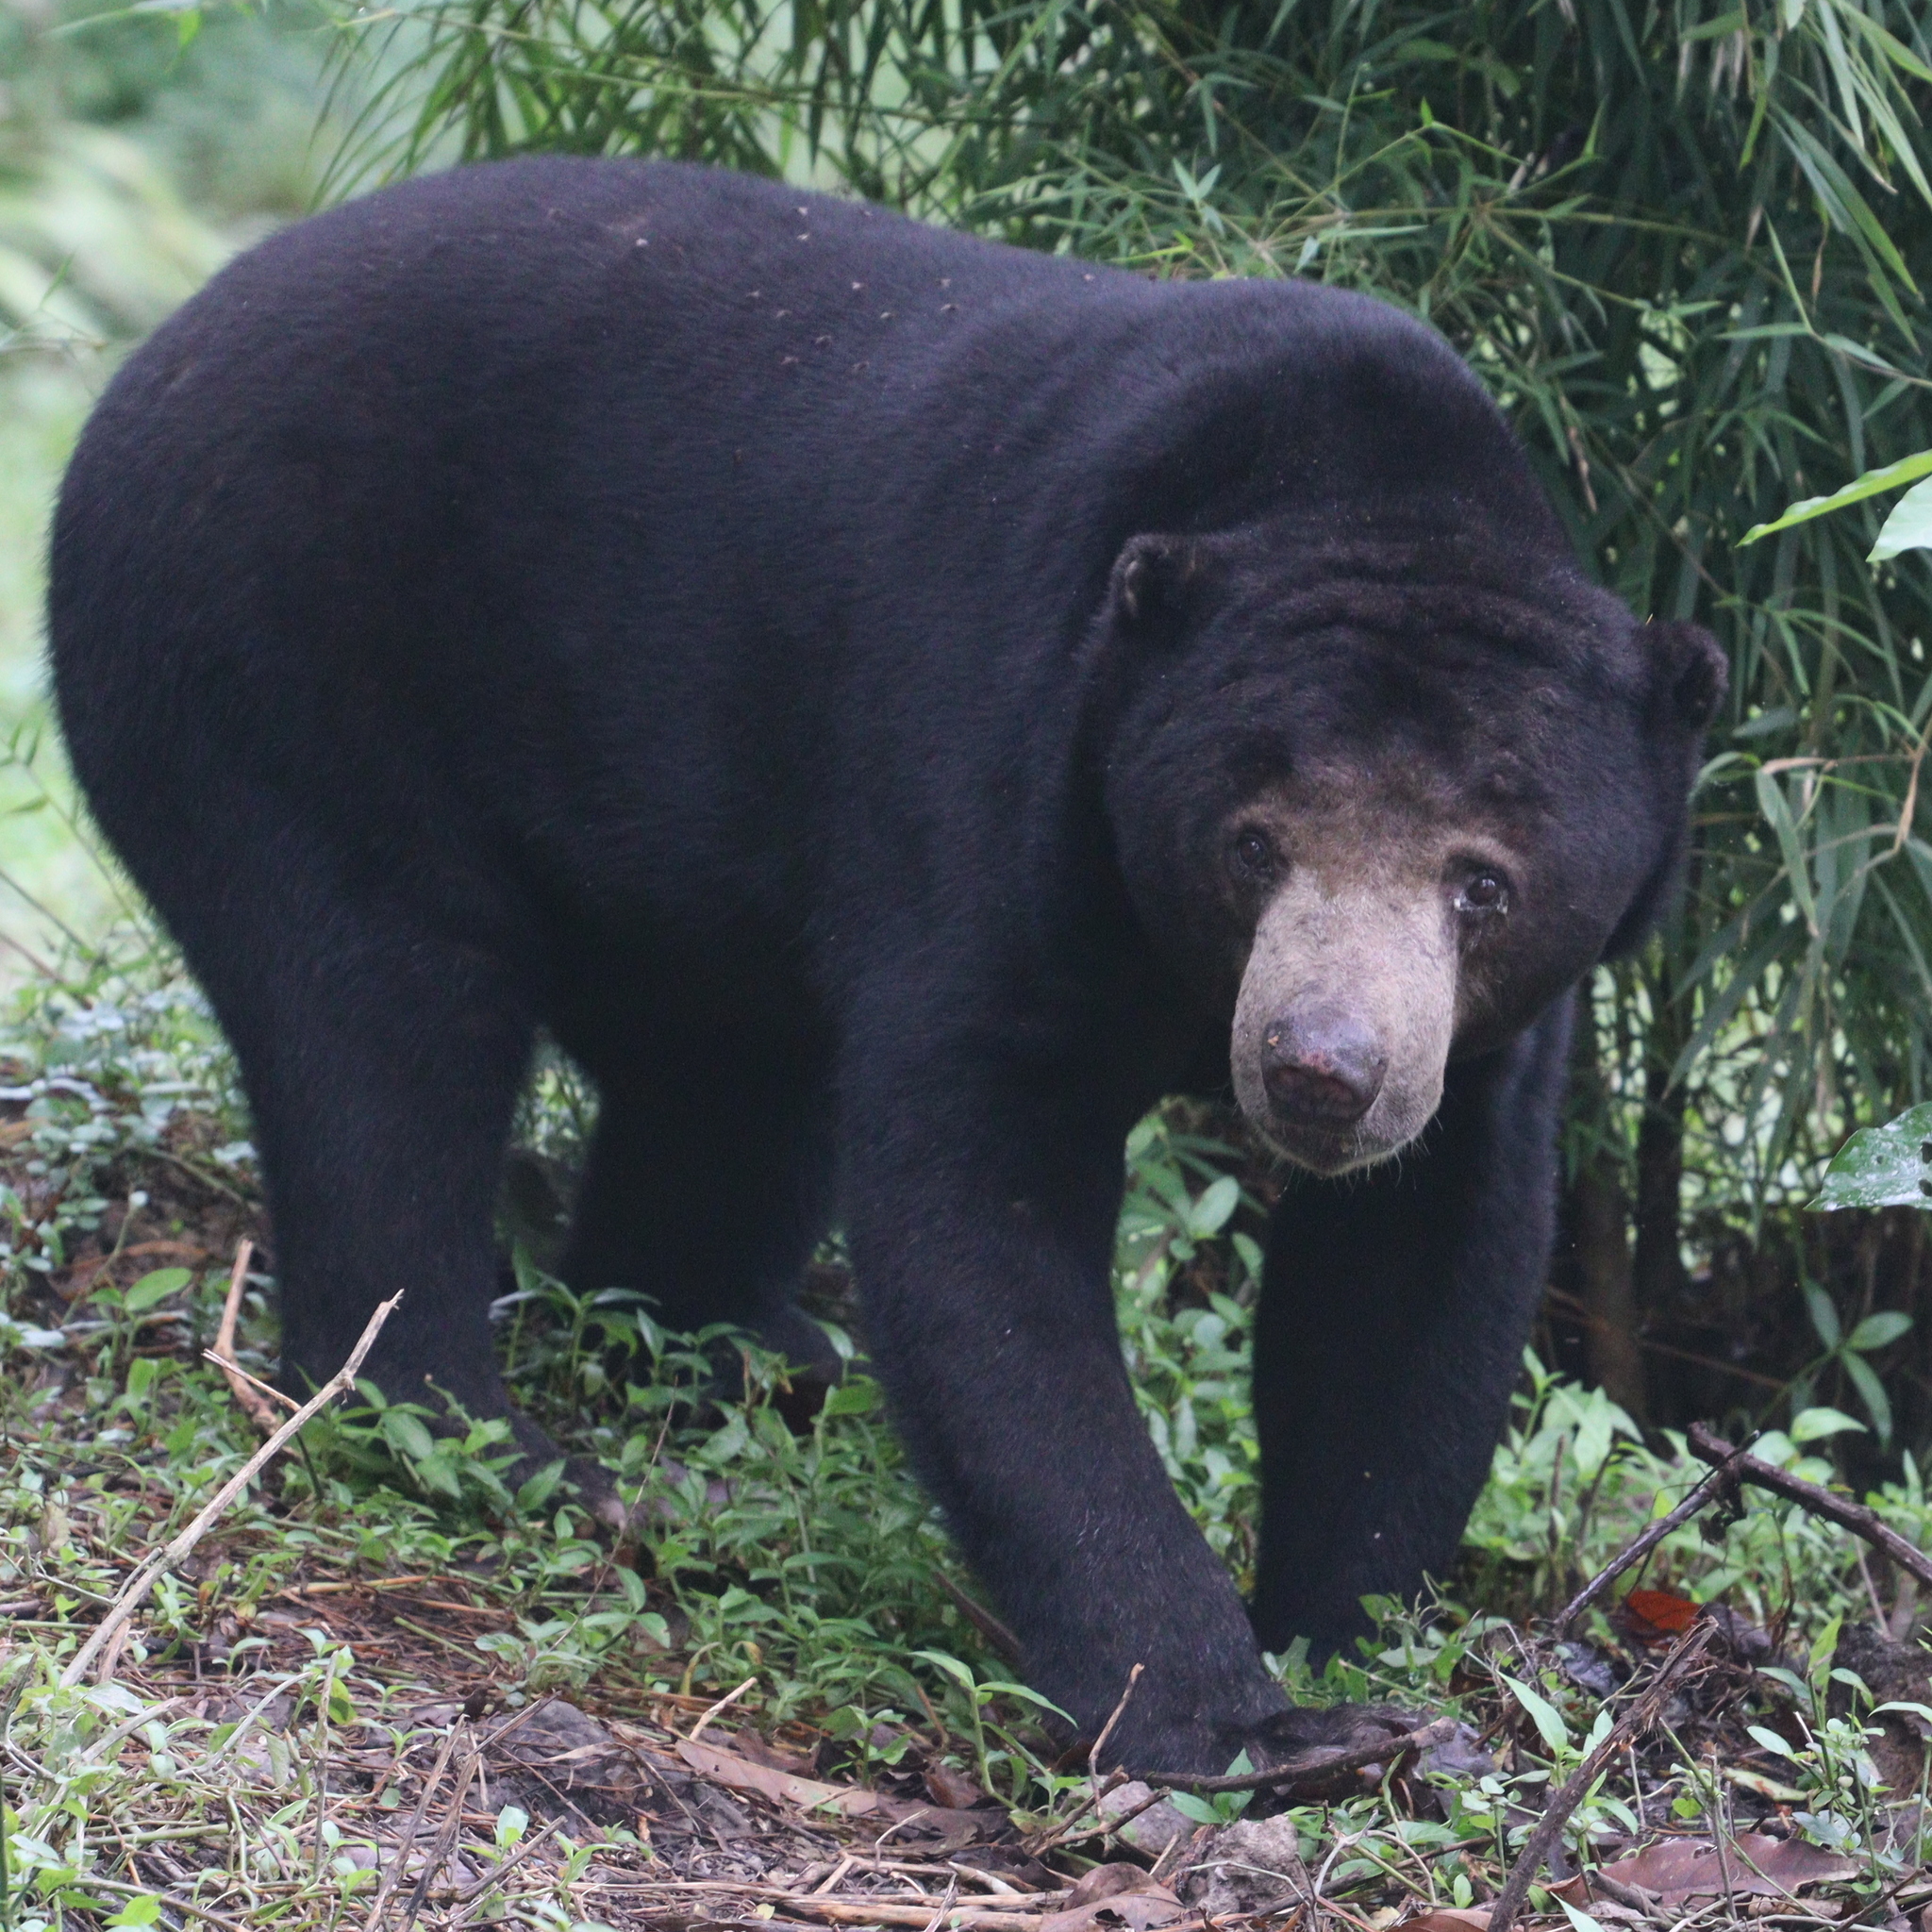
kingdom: Animalia
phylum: Chordata
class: Mammalia
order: Carnivora
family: Ursidae
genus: Helarctos
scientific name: Helarctos malayanus
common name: Sun bear
